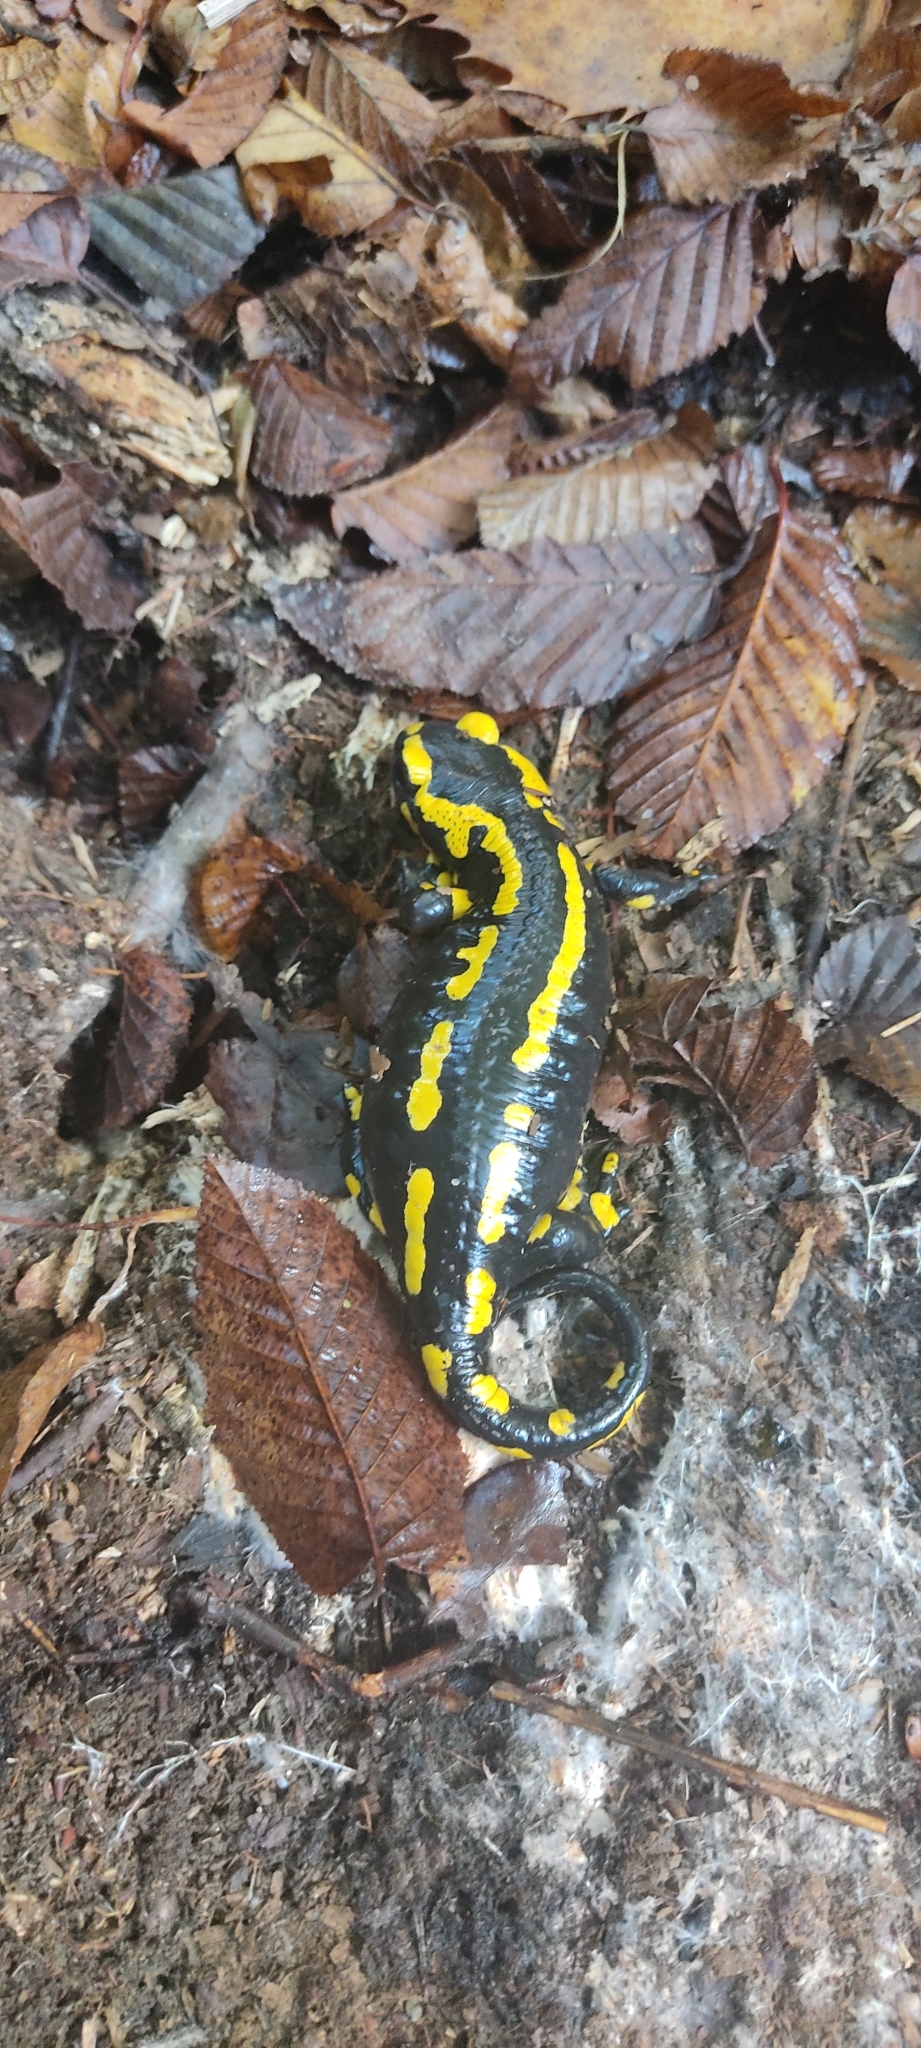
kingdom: Animalia
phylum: Chordata
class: Amphibia
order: Caudata
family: Salamandridae
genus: Salamandra
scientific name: Salamandra salamandra
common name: Fire salamander
